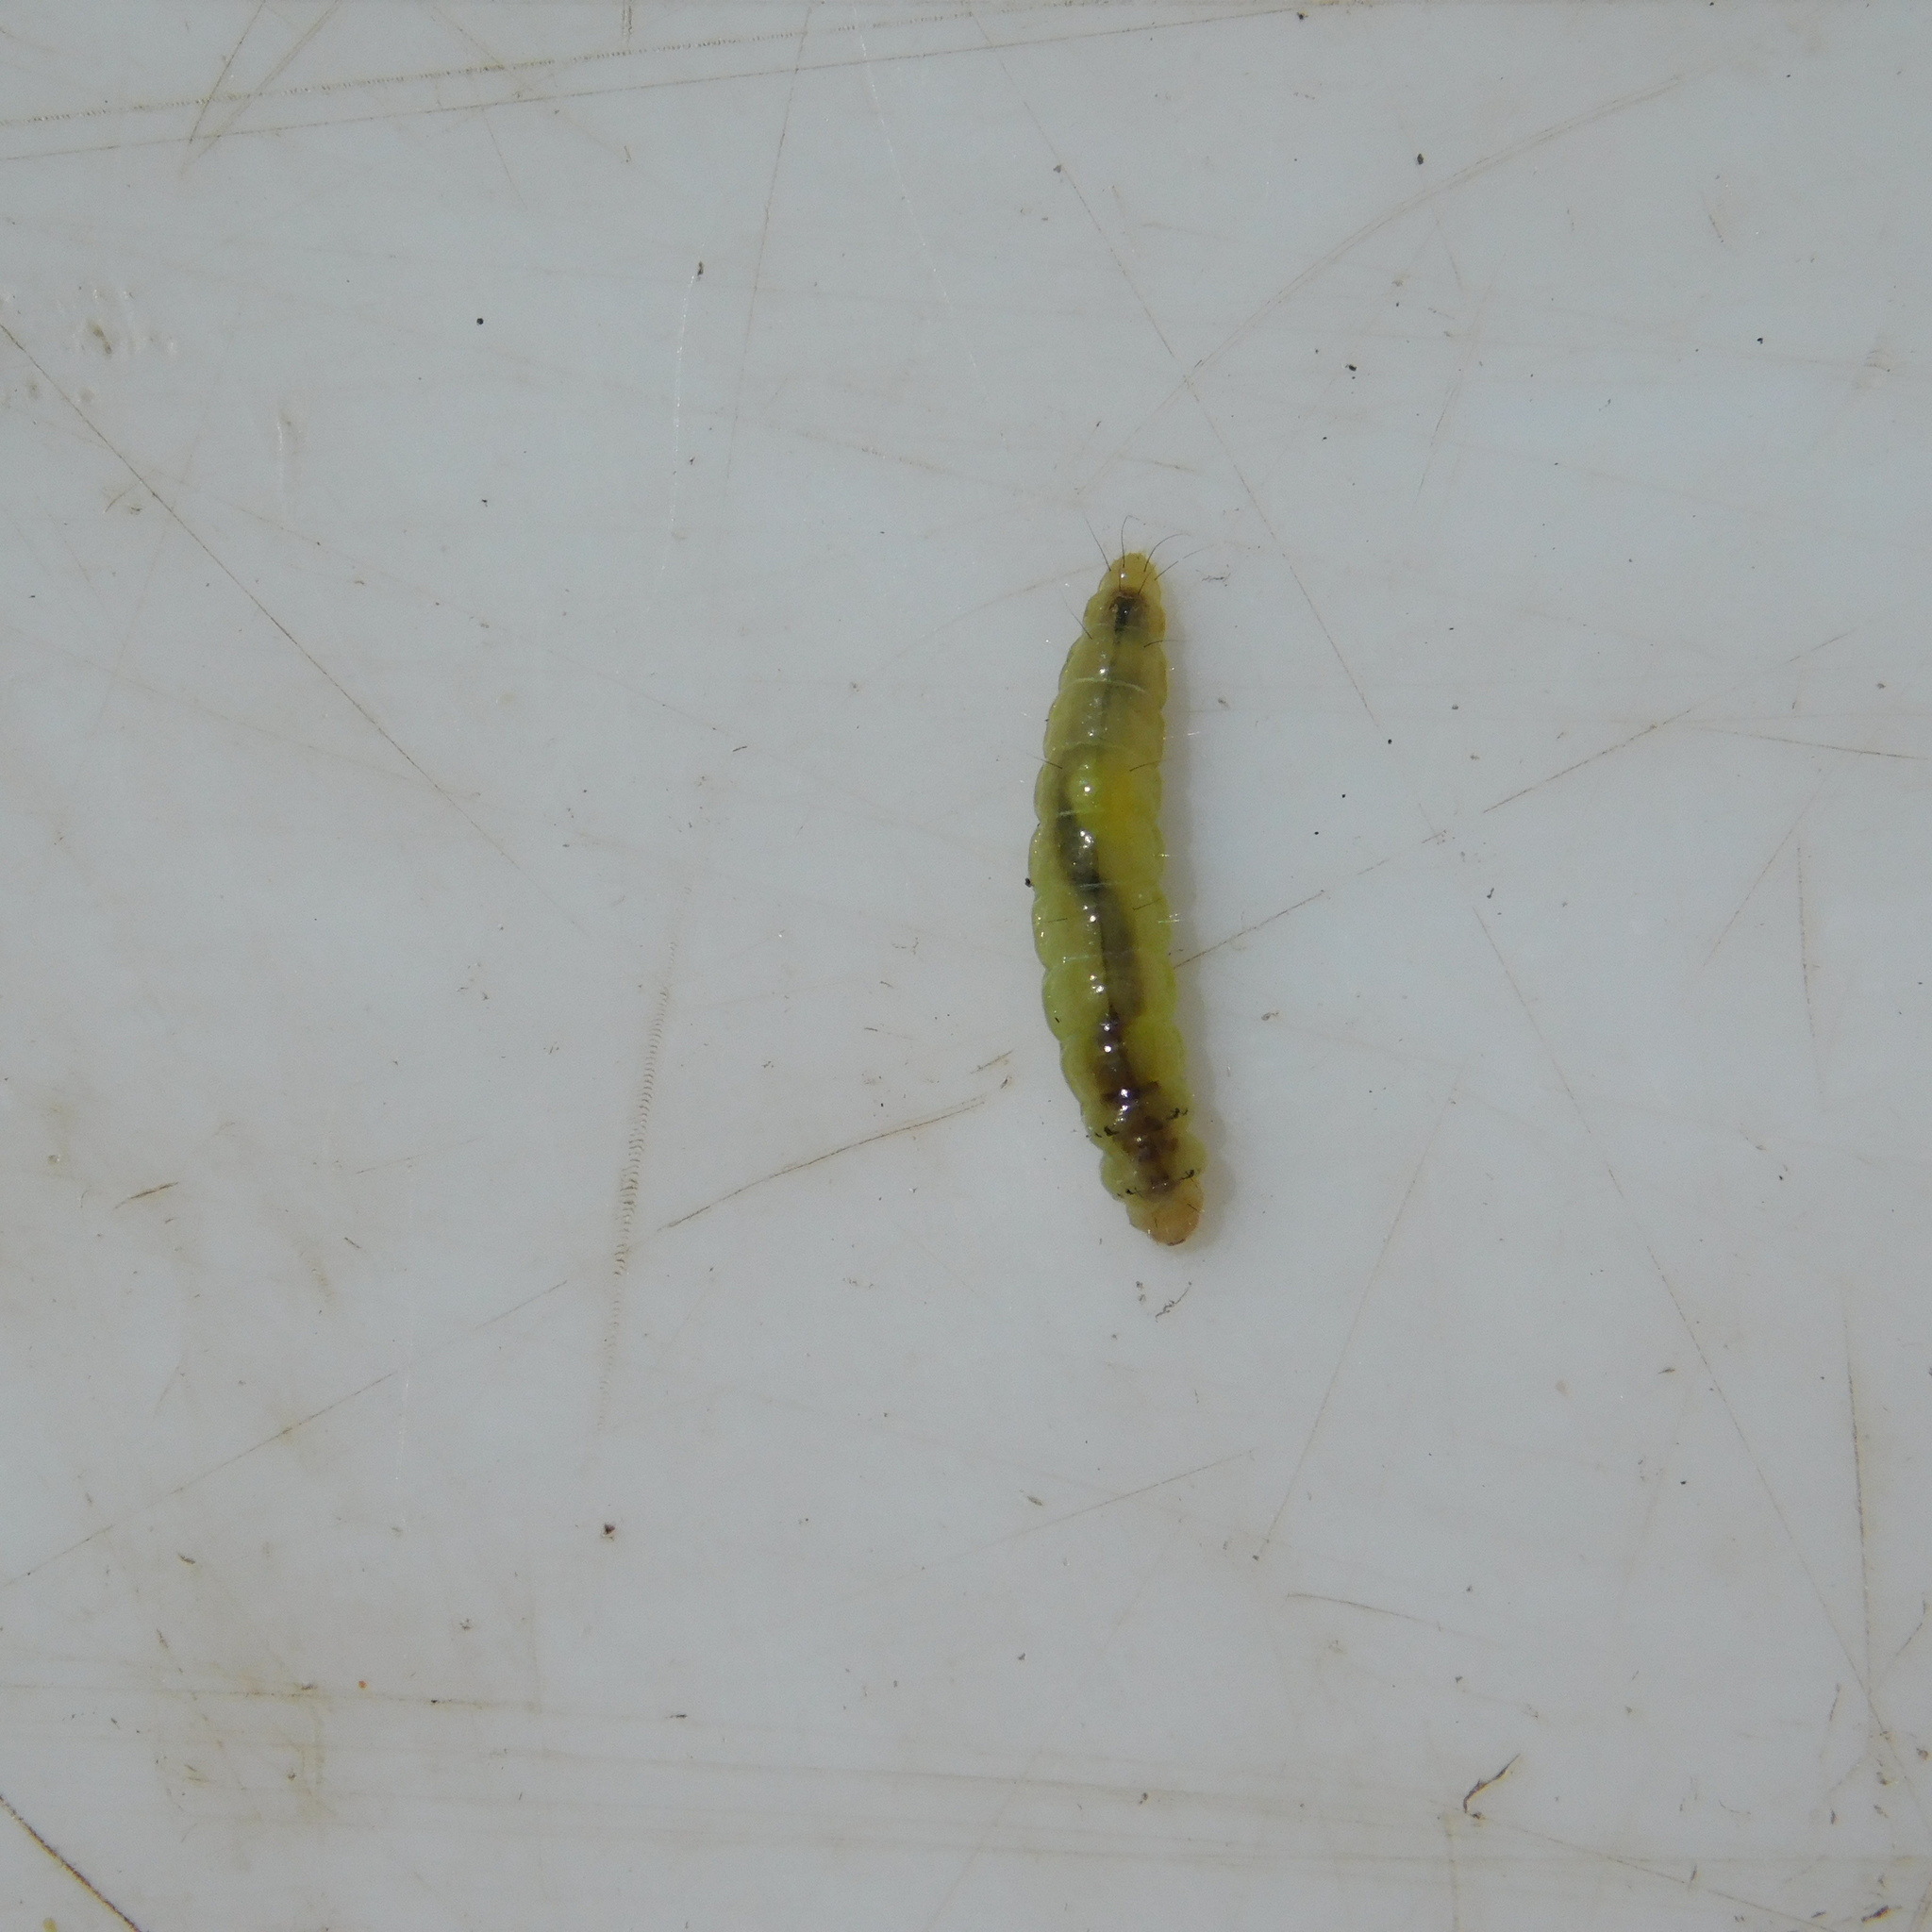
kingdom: Animalia
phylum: Arthropoda
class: Insecta
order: Lepidoptera
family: Galacticidae
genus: Tanaoctena
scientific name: Tanaoctena dubia
